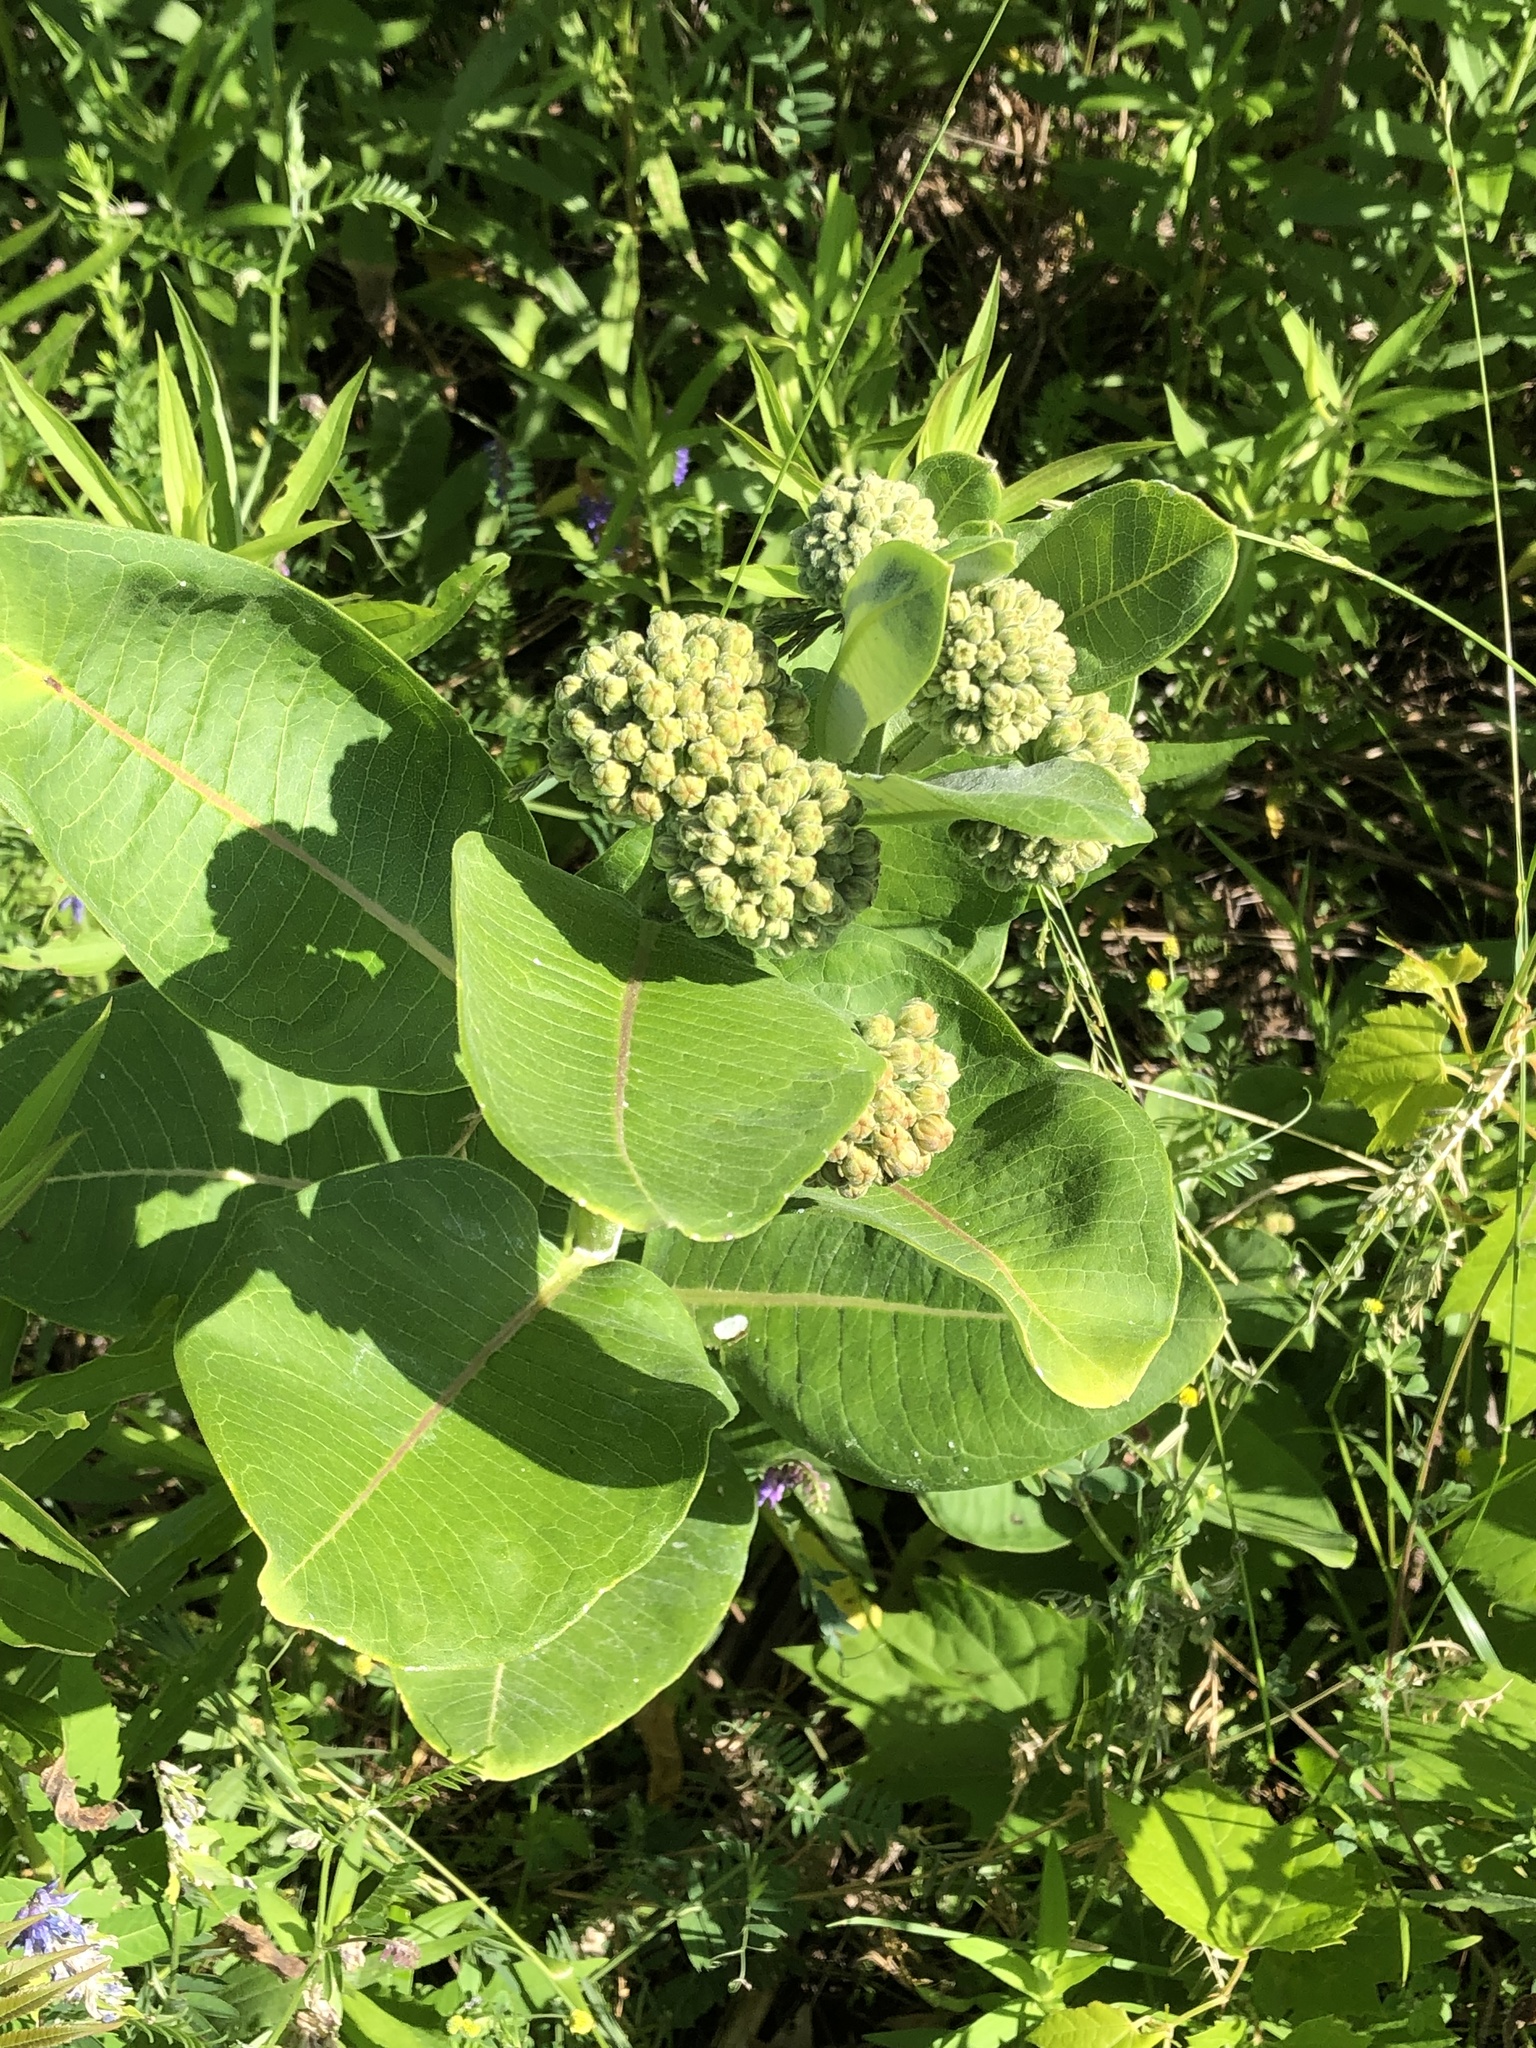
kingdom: Plantae
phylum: Tracheophyta
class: Magnoliopsida
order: Gentianales
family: Apocynaceae
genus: Asclepias
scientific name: Asclepias syriaca
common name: Common milkweed
